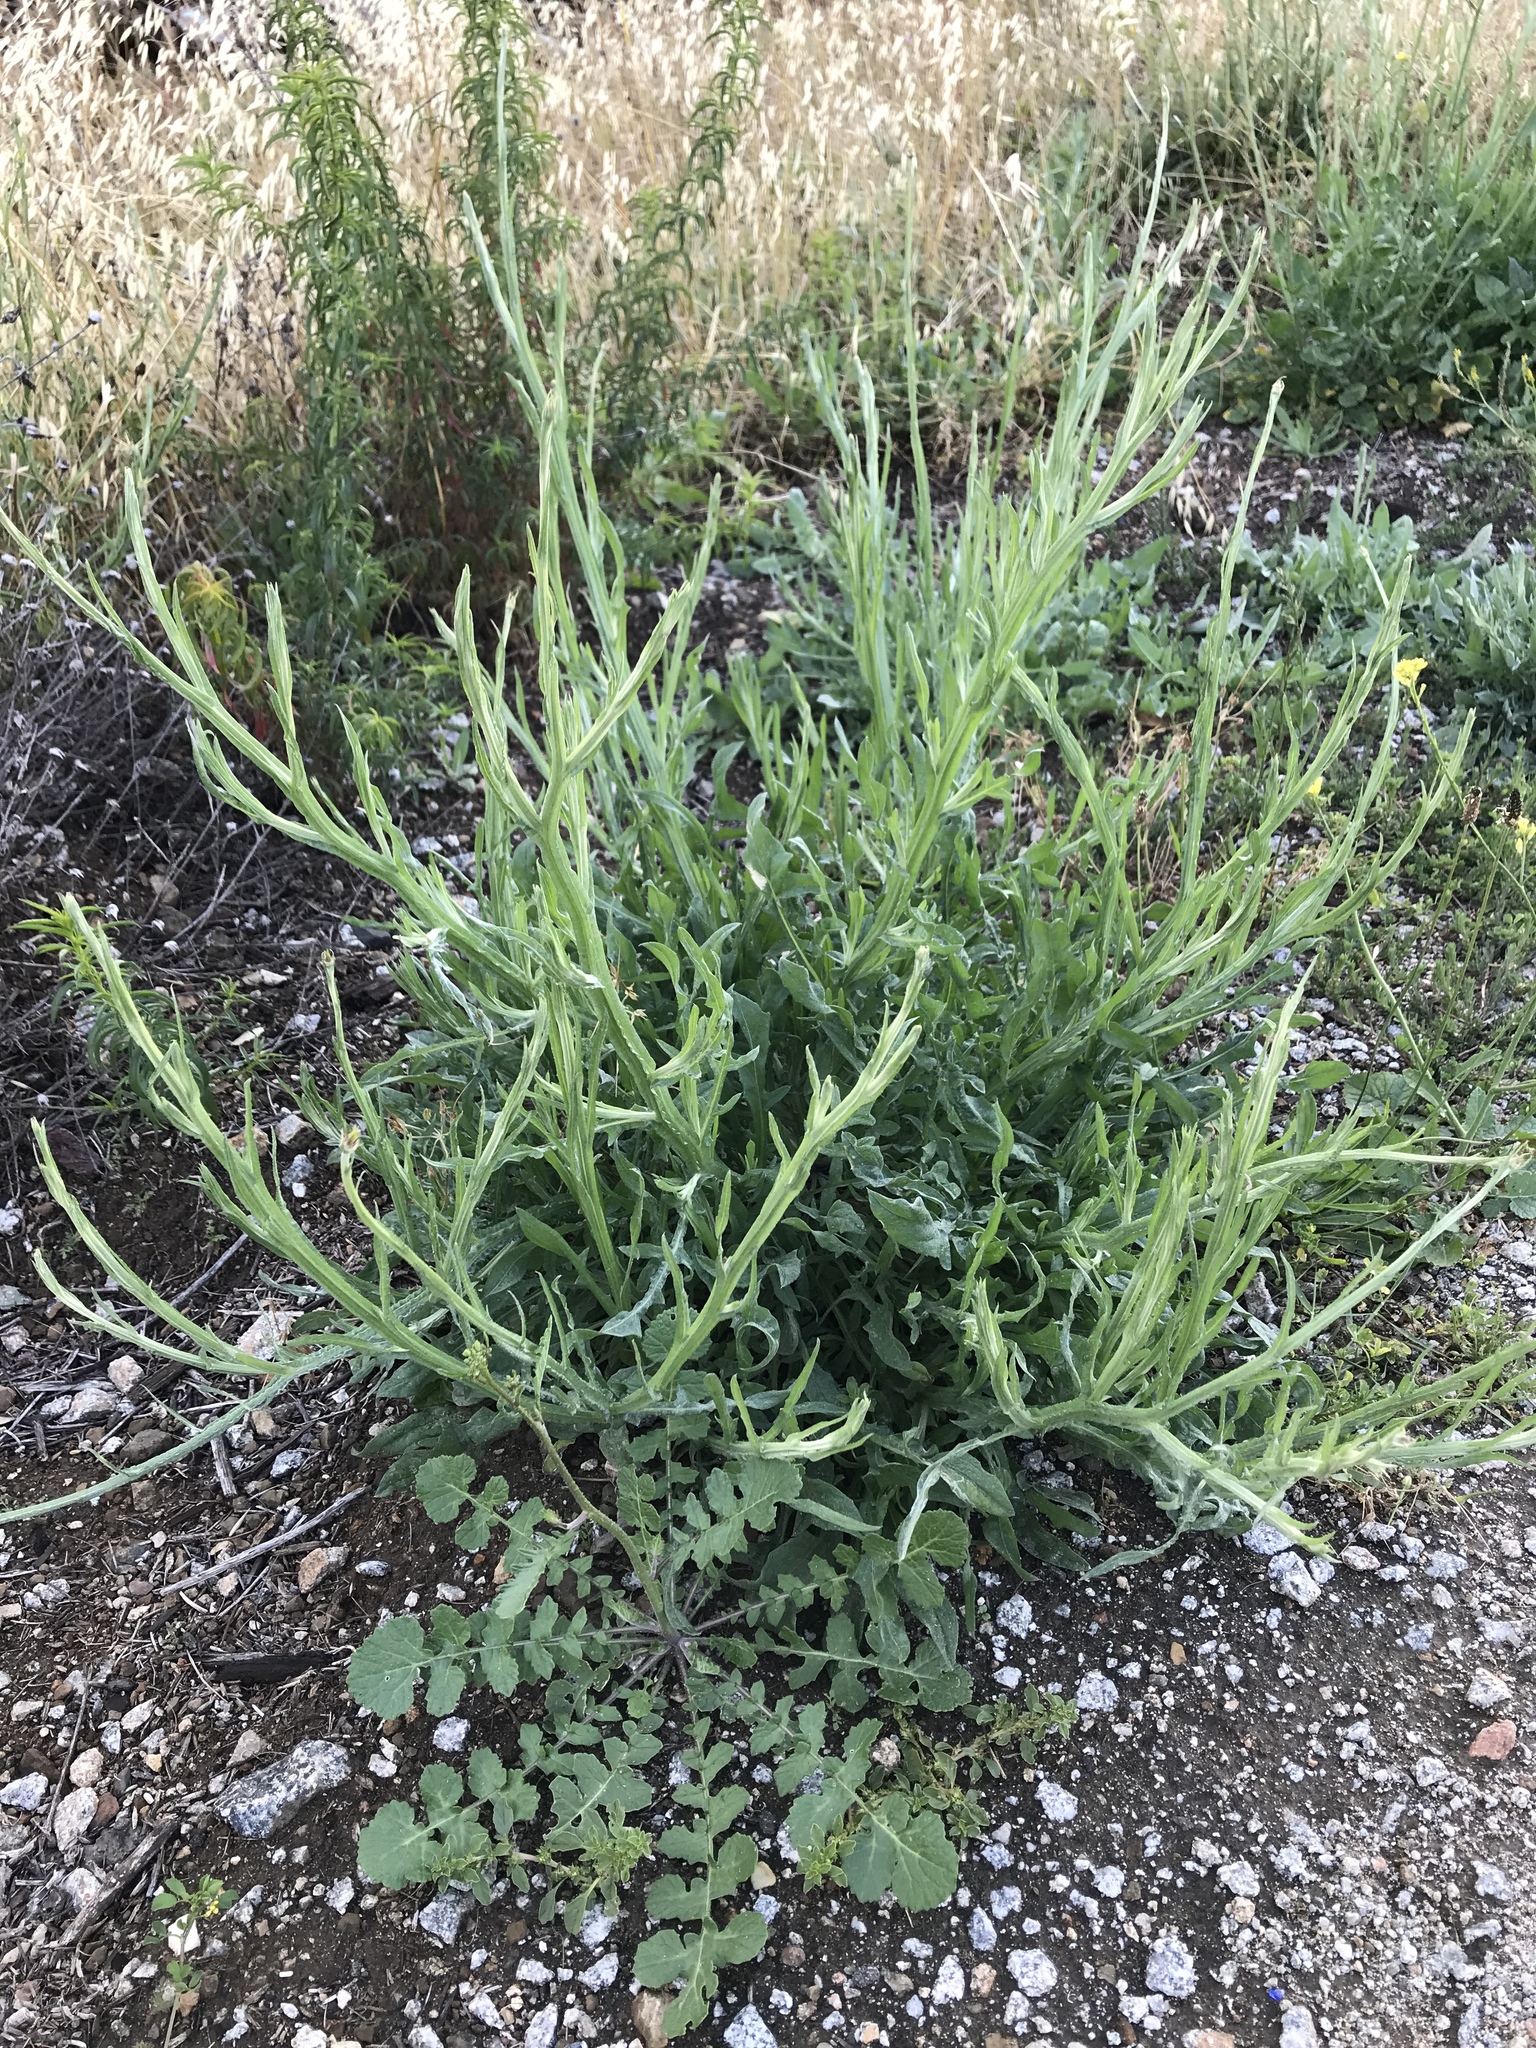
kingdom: Plantae
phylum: Tracheophyta
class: Magnoliopsida
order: Asterales
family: Asteraceae
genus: Centaurea
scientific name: Centaurea solstitialis
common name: Yellow star-thistle
